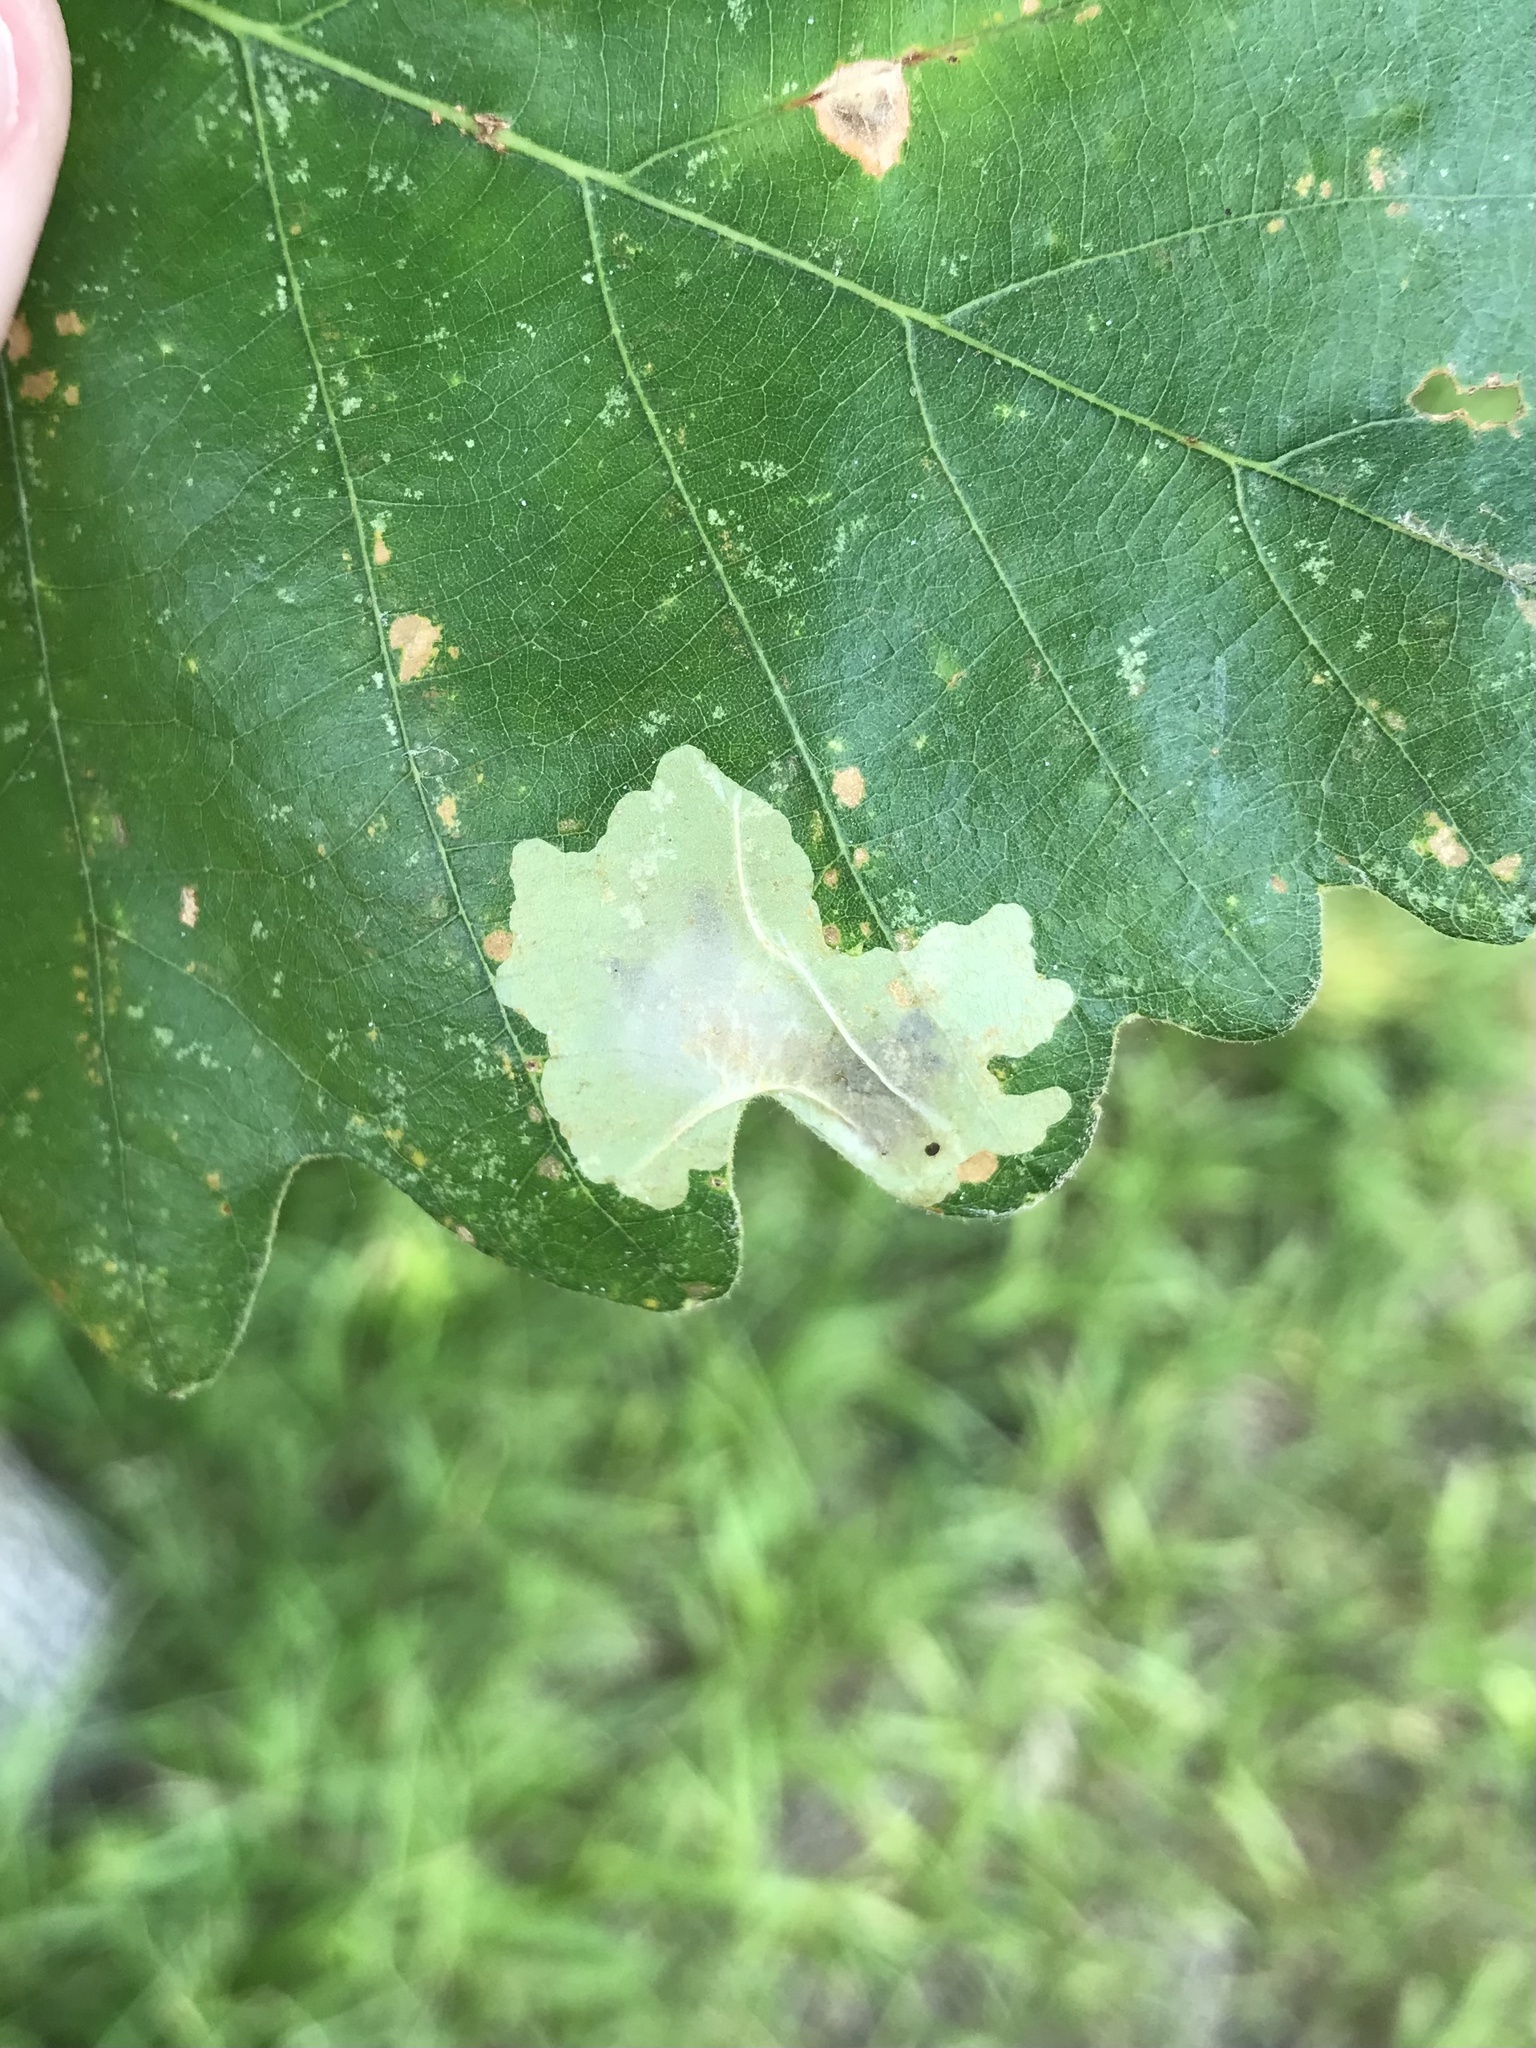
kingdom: Animalia
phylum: Arthropoda
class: Insecta
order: Lepidoptera
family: Gracillariidae
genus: Cameraria
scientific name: Cameraria macrocarpella
